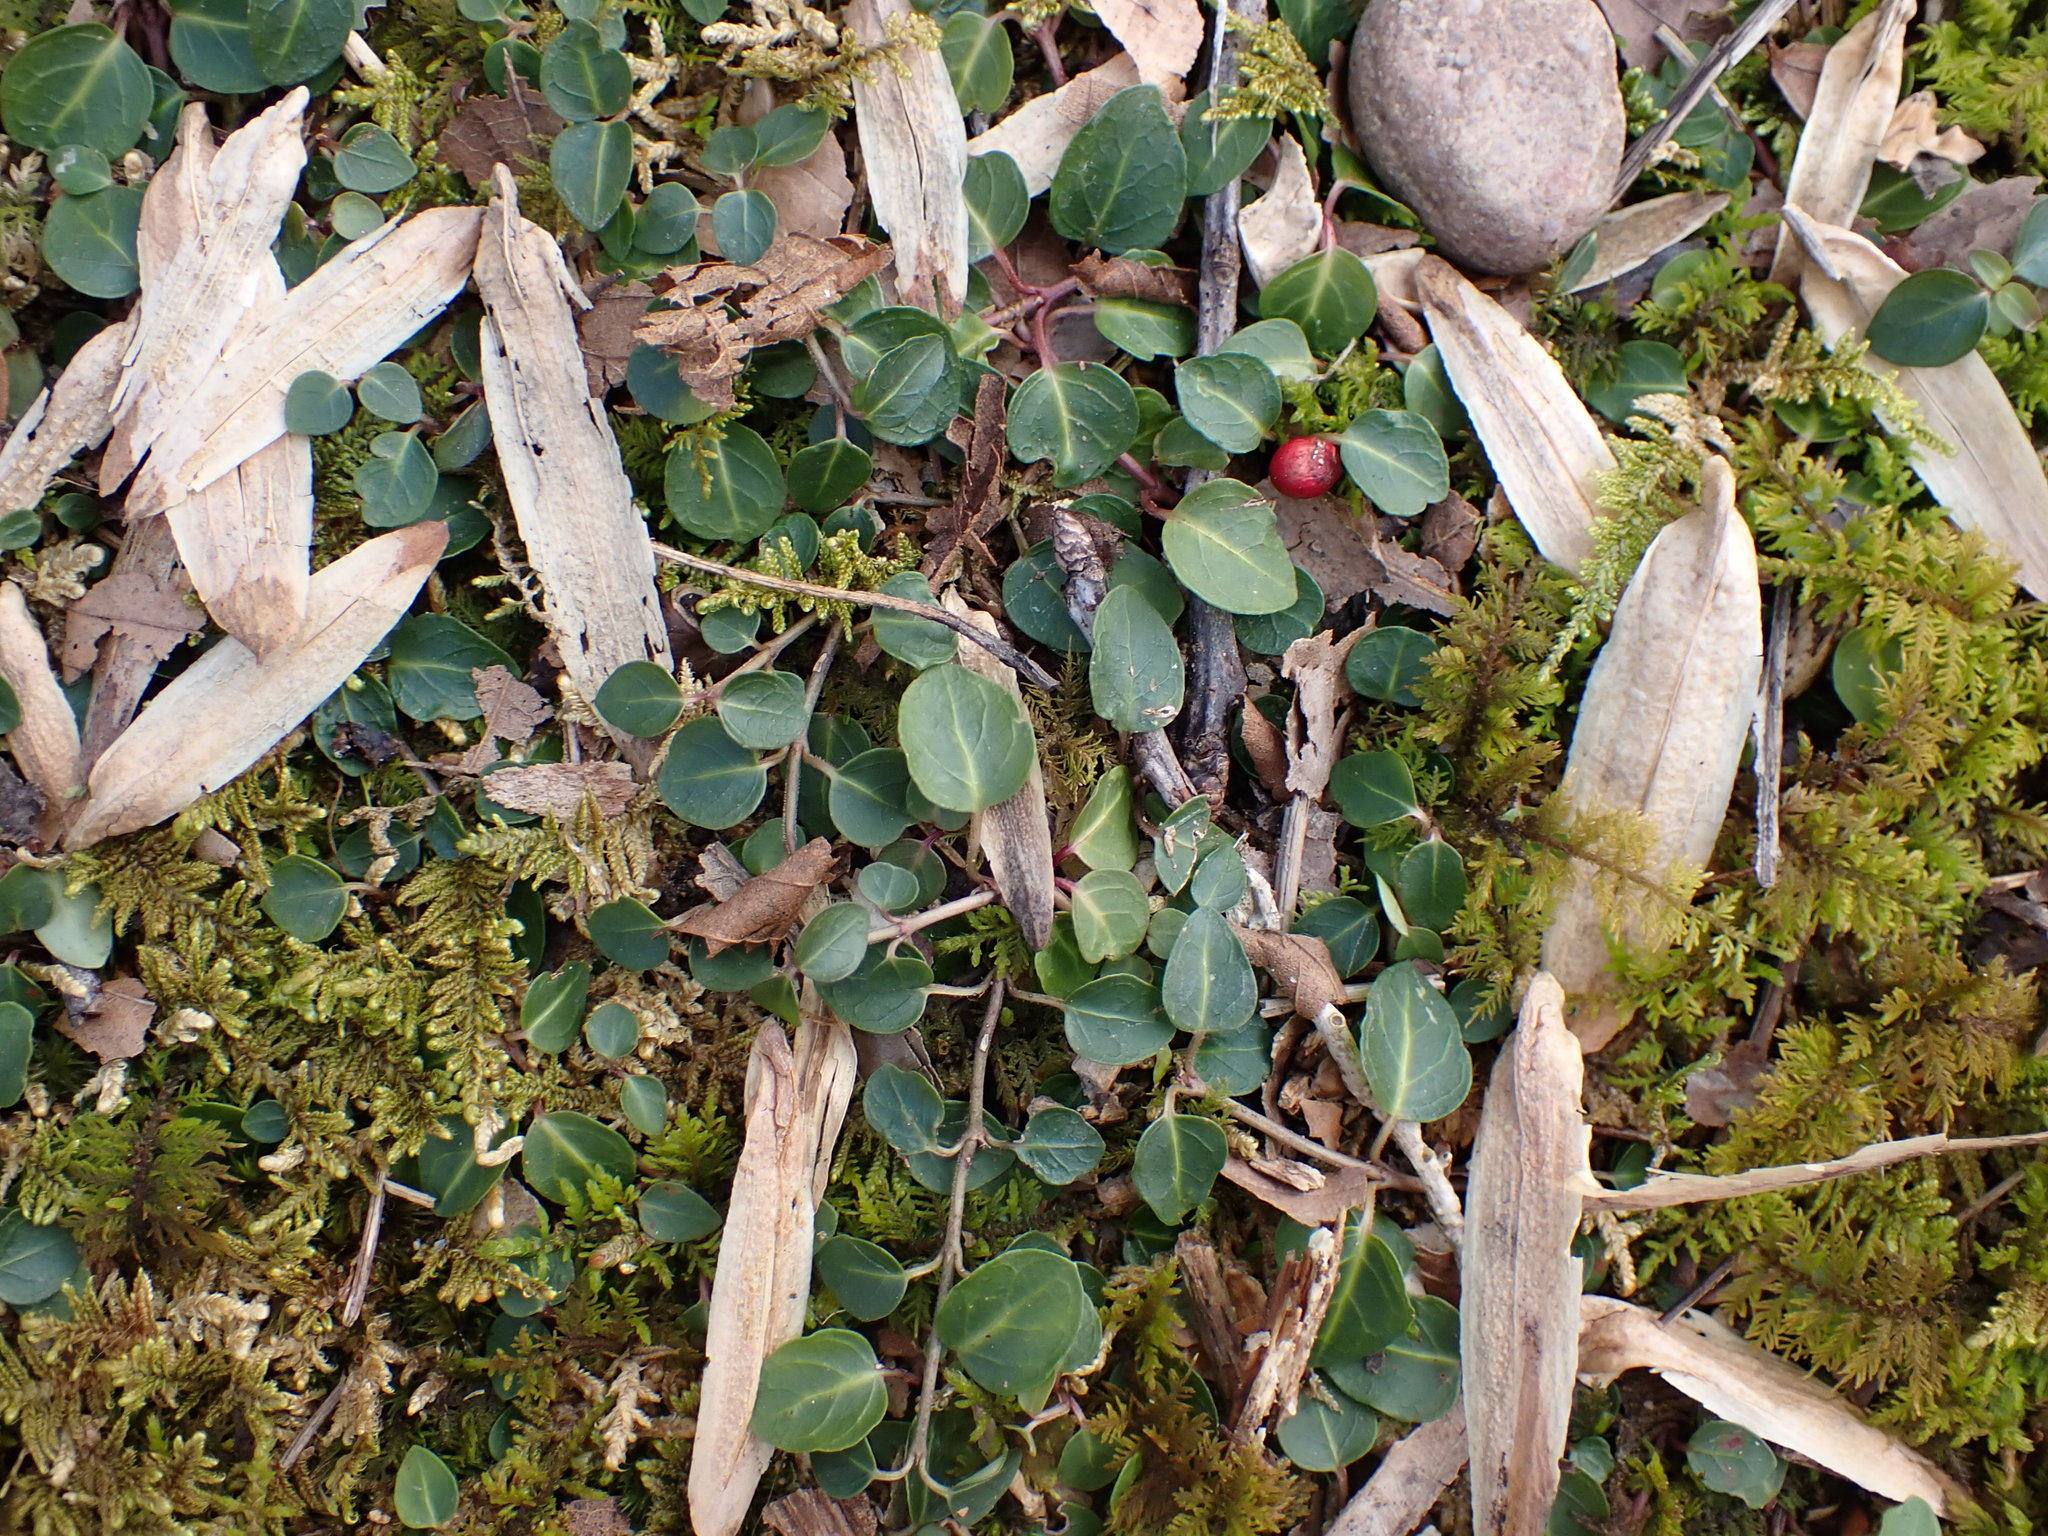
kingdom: Plantae
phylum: Tracheophyta
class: Magnoliopsida
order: Gentianales
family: Rubiaceae
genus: Mitchella
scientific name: Mitchella repens
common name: Partridge-berry
